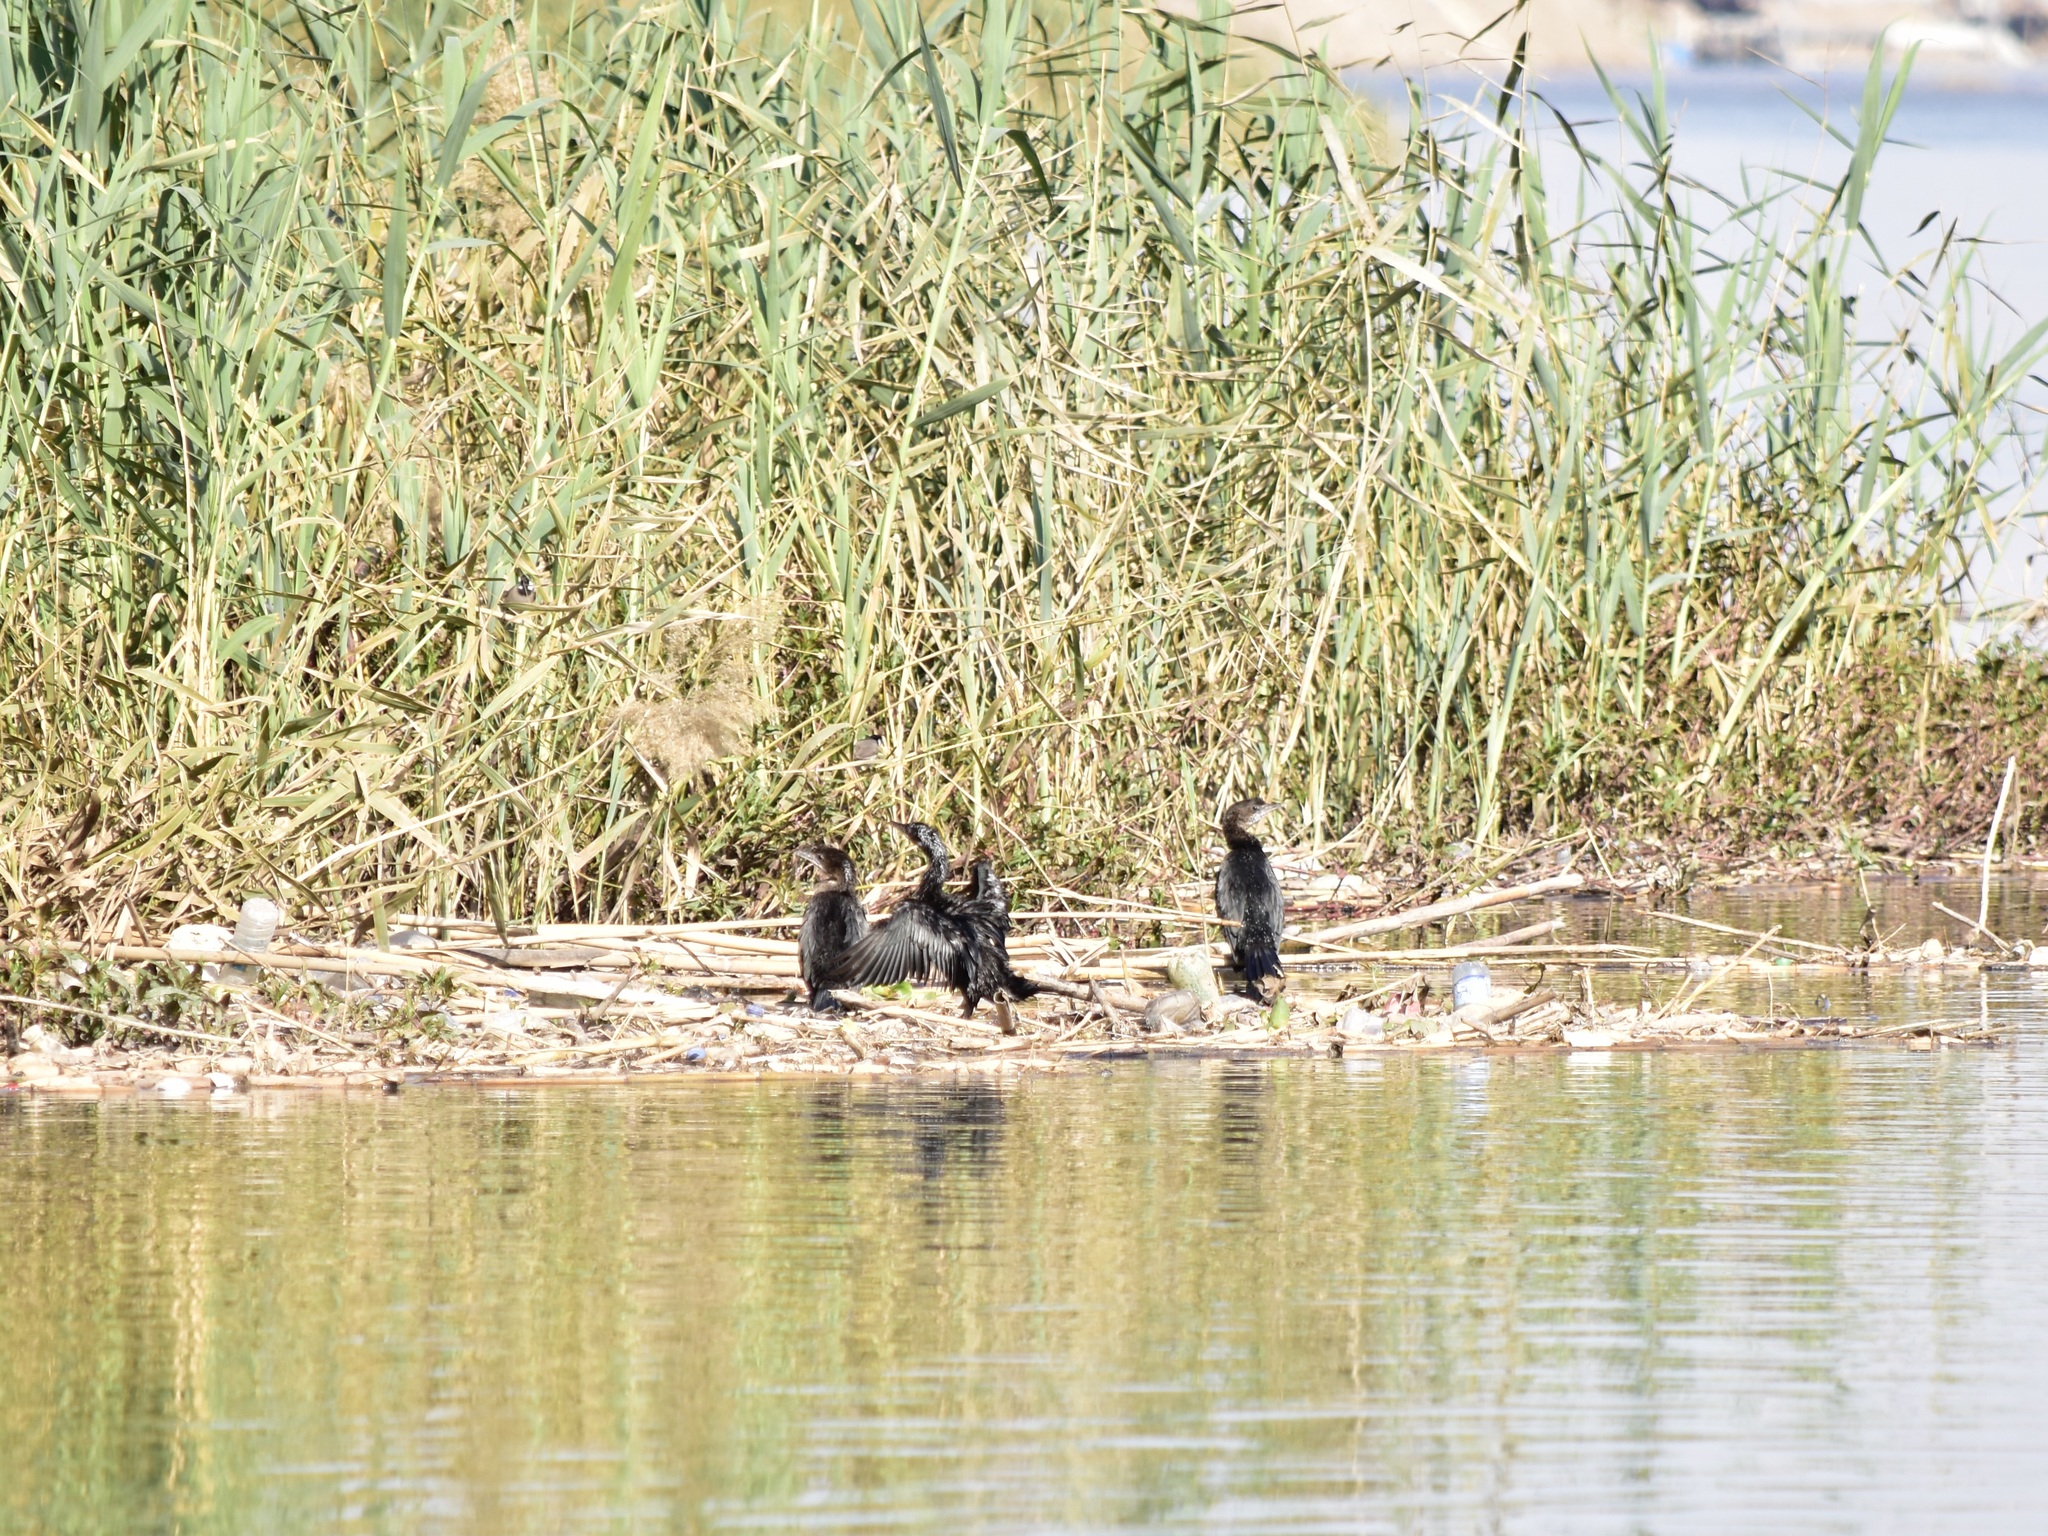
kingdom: Animalia
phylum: Chordata
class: Aves
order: Suliformes
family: Phalacrocoracidae
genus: Microcarbo
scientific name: Microcarbo pygmaeus
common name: Pygmy cormorant
